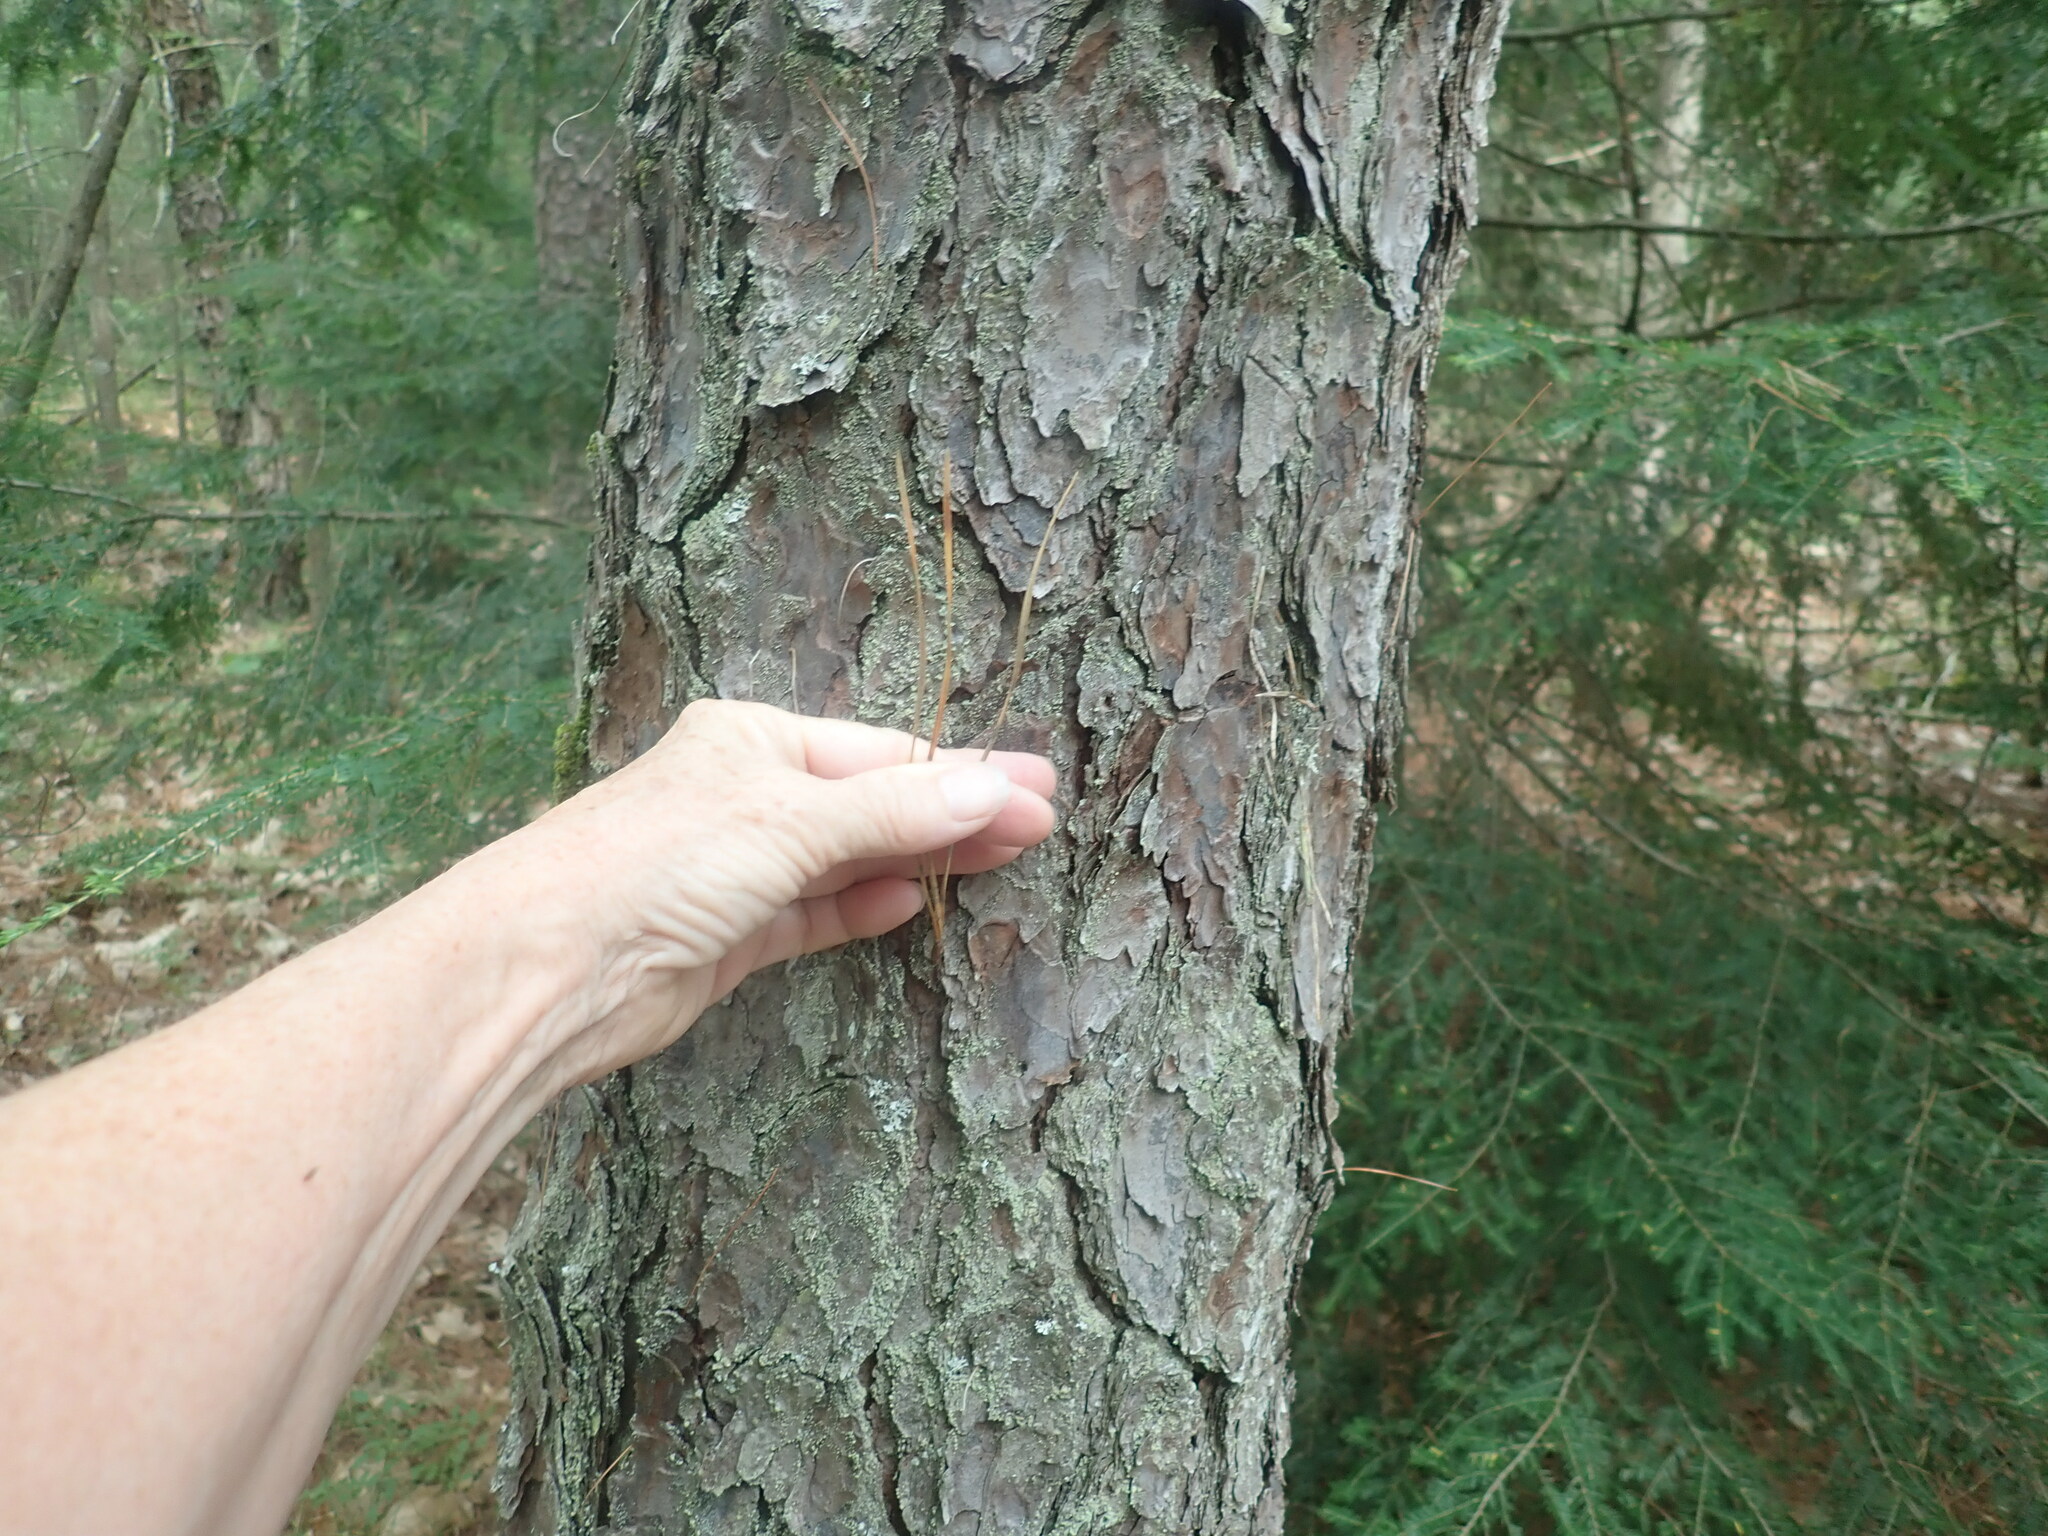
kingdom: Plantae
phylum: Tracheophyta
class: Pinopsida
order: Pinales
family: Pinaceae
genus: Pinus
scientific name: Pinus rigida
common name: Pitch pine
